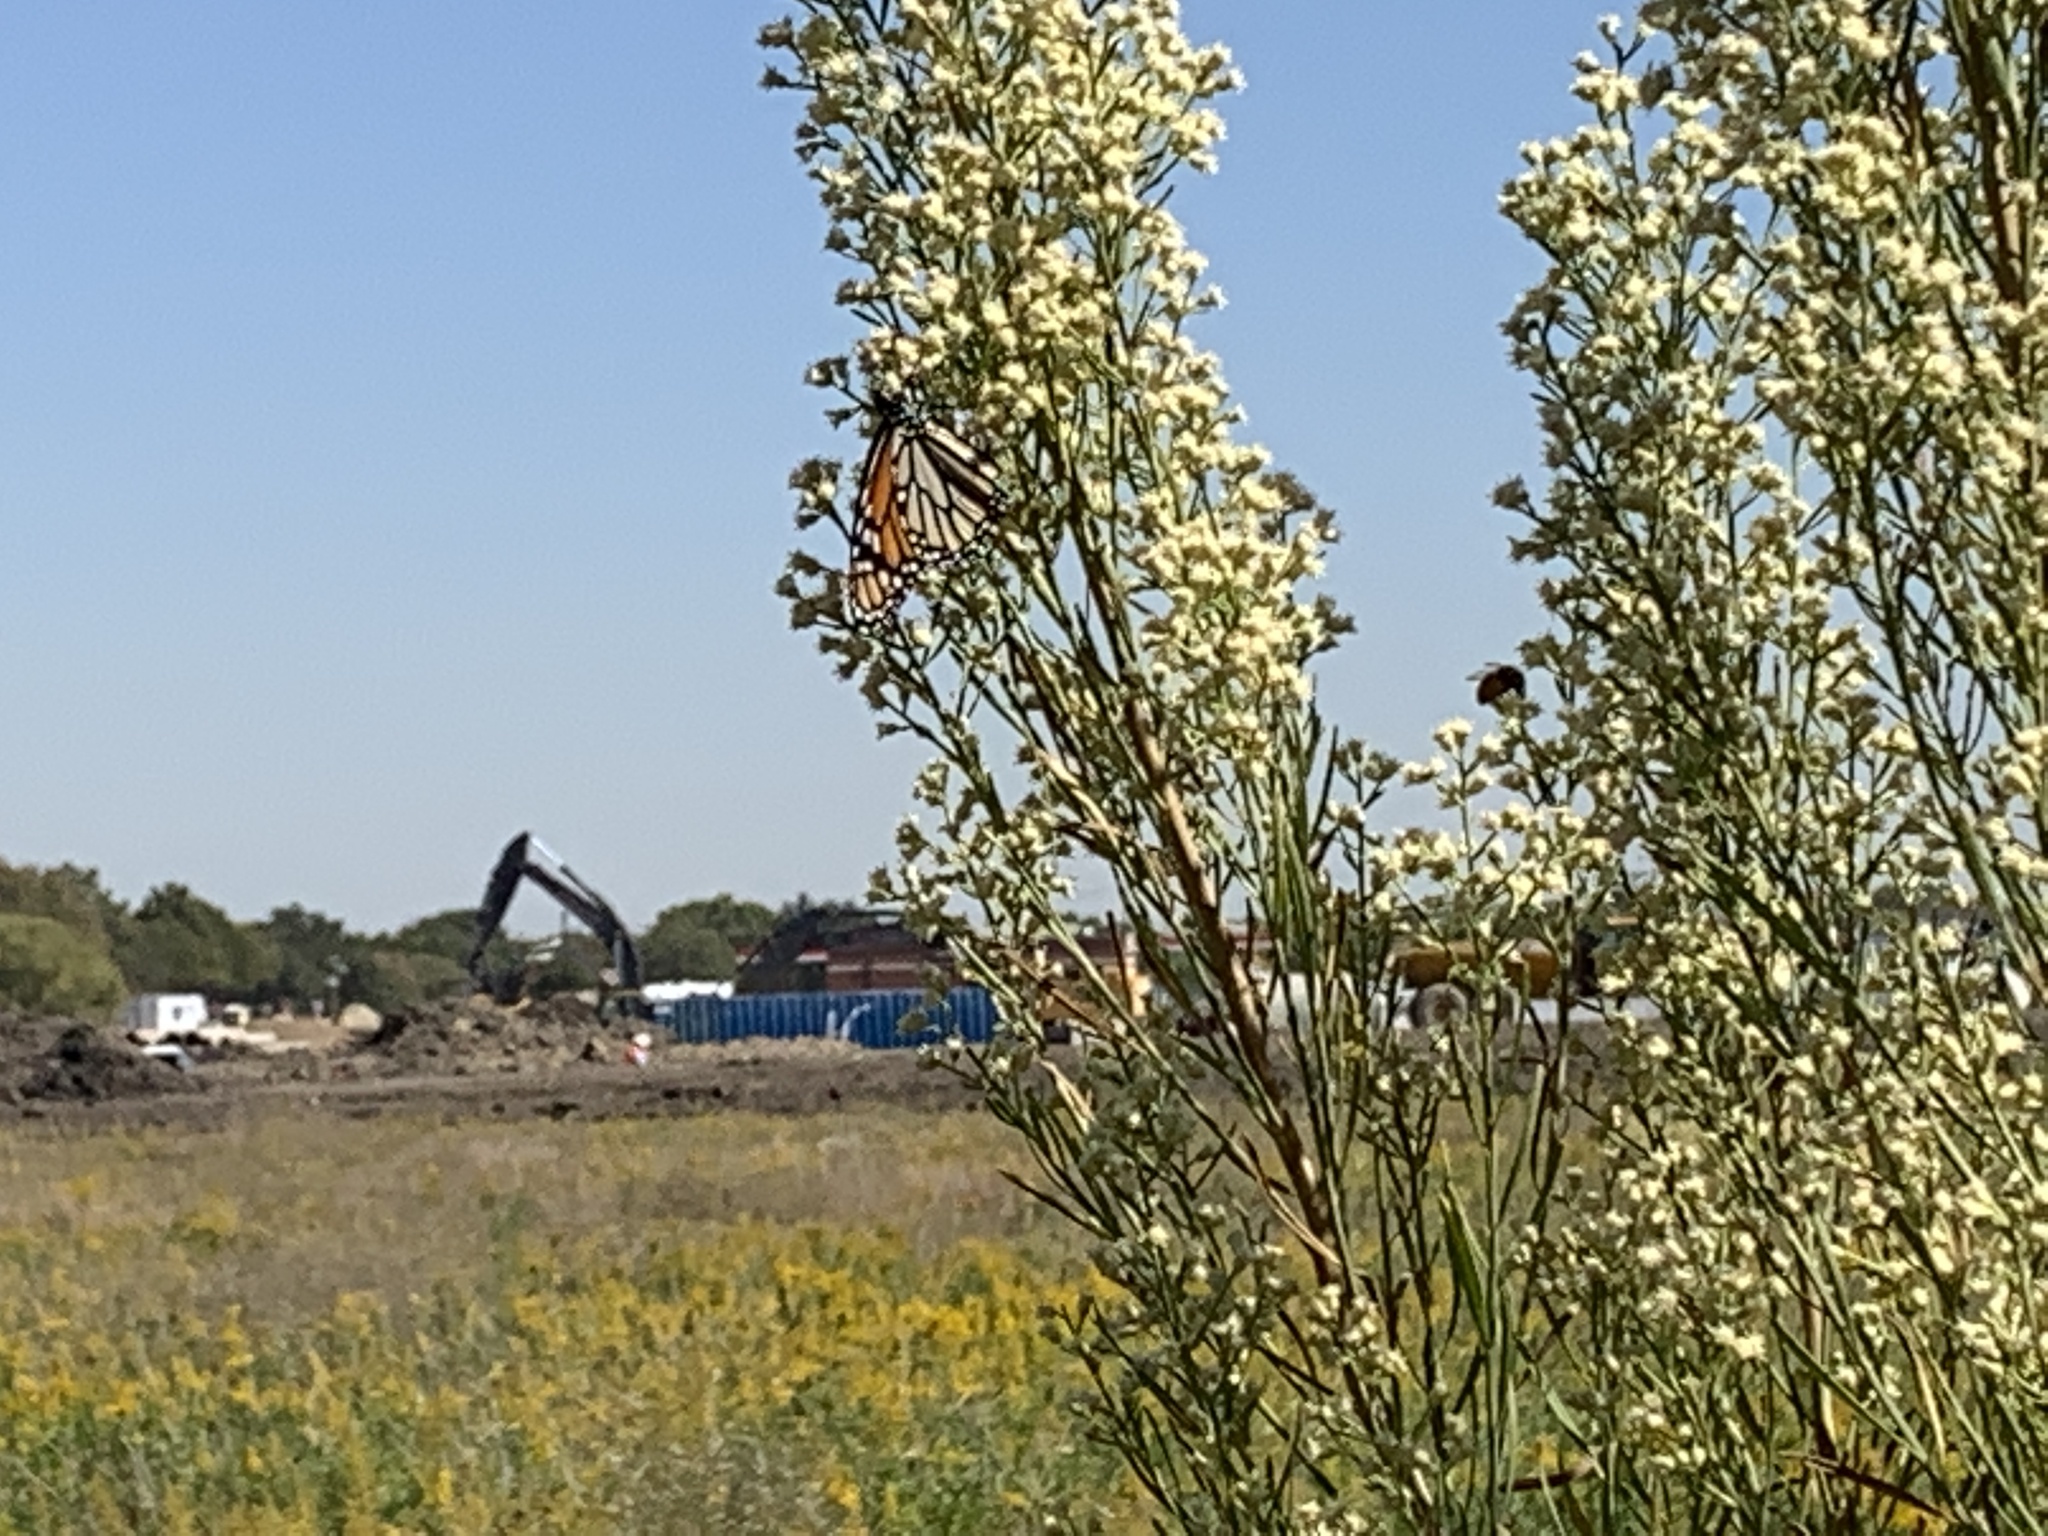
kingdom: Animalia
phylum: Arthropoda
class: Insecta
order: Lepidoptera
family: Nymphalidae
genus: Danaus
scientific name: Danaus plexippus
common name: Monarch
